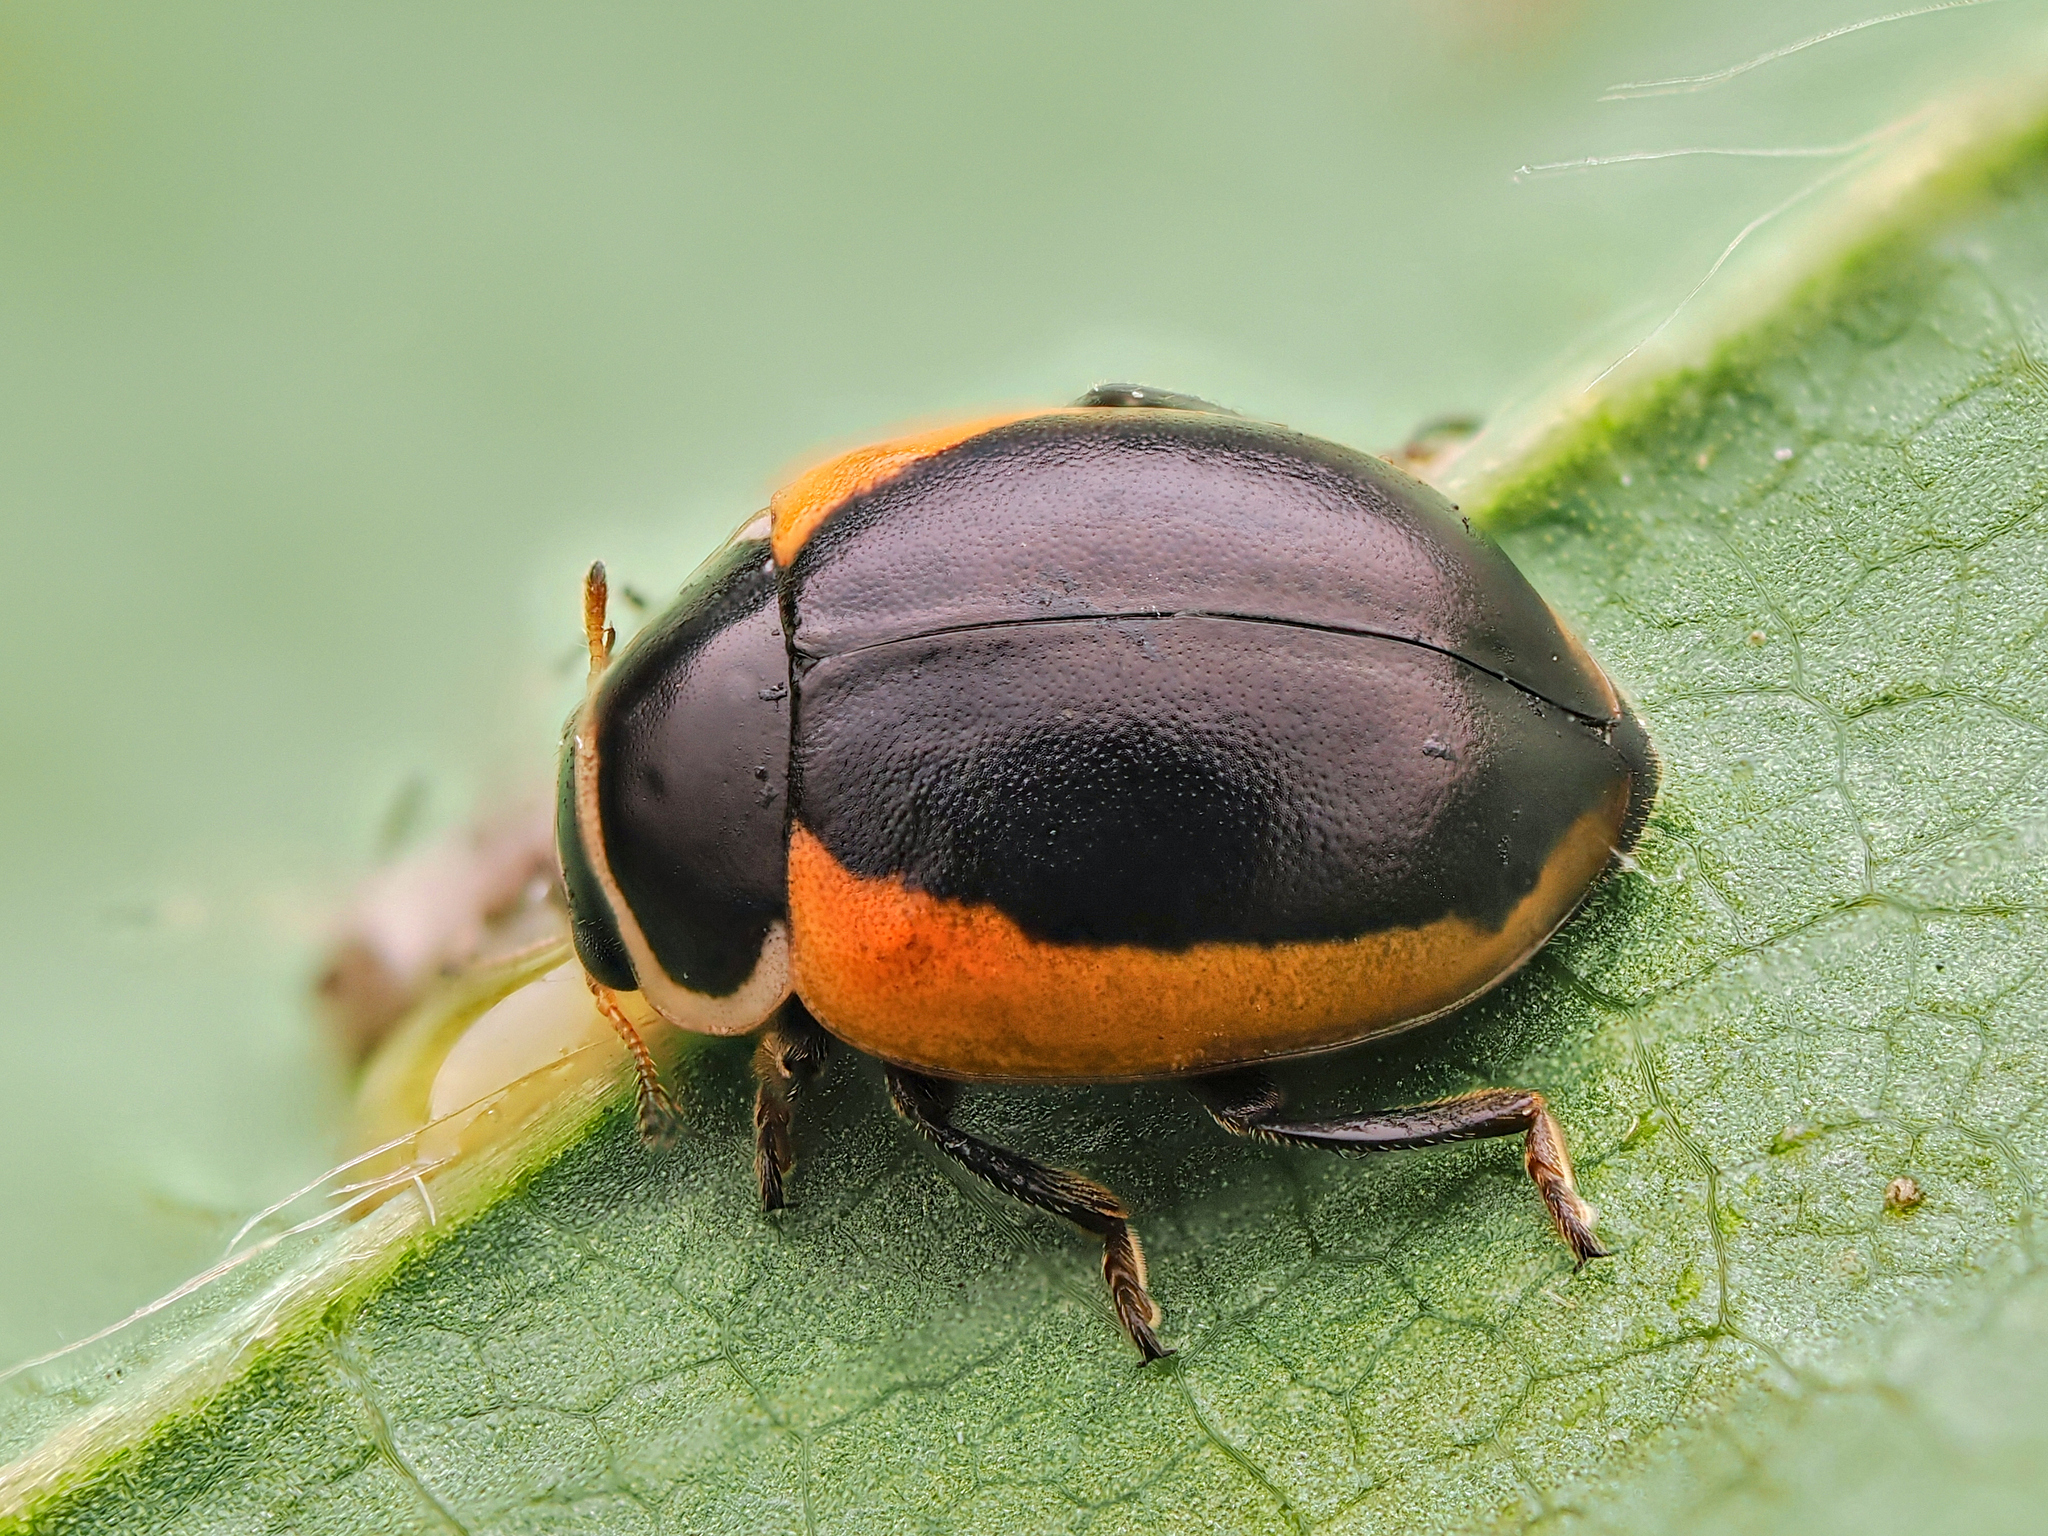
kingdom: Animalia
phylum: Arthropoda
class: Insecta
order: Coleoptera
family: Coccinellidae
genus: Ceratomegilla
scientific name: Ceratomegilla Semiadalia rufocincta
